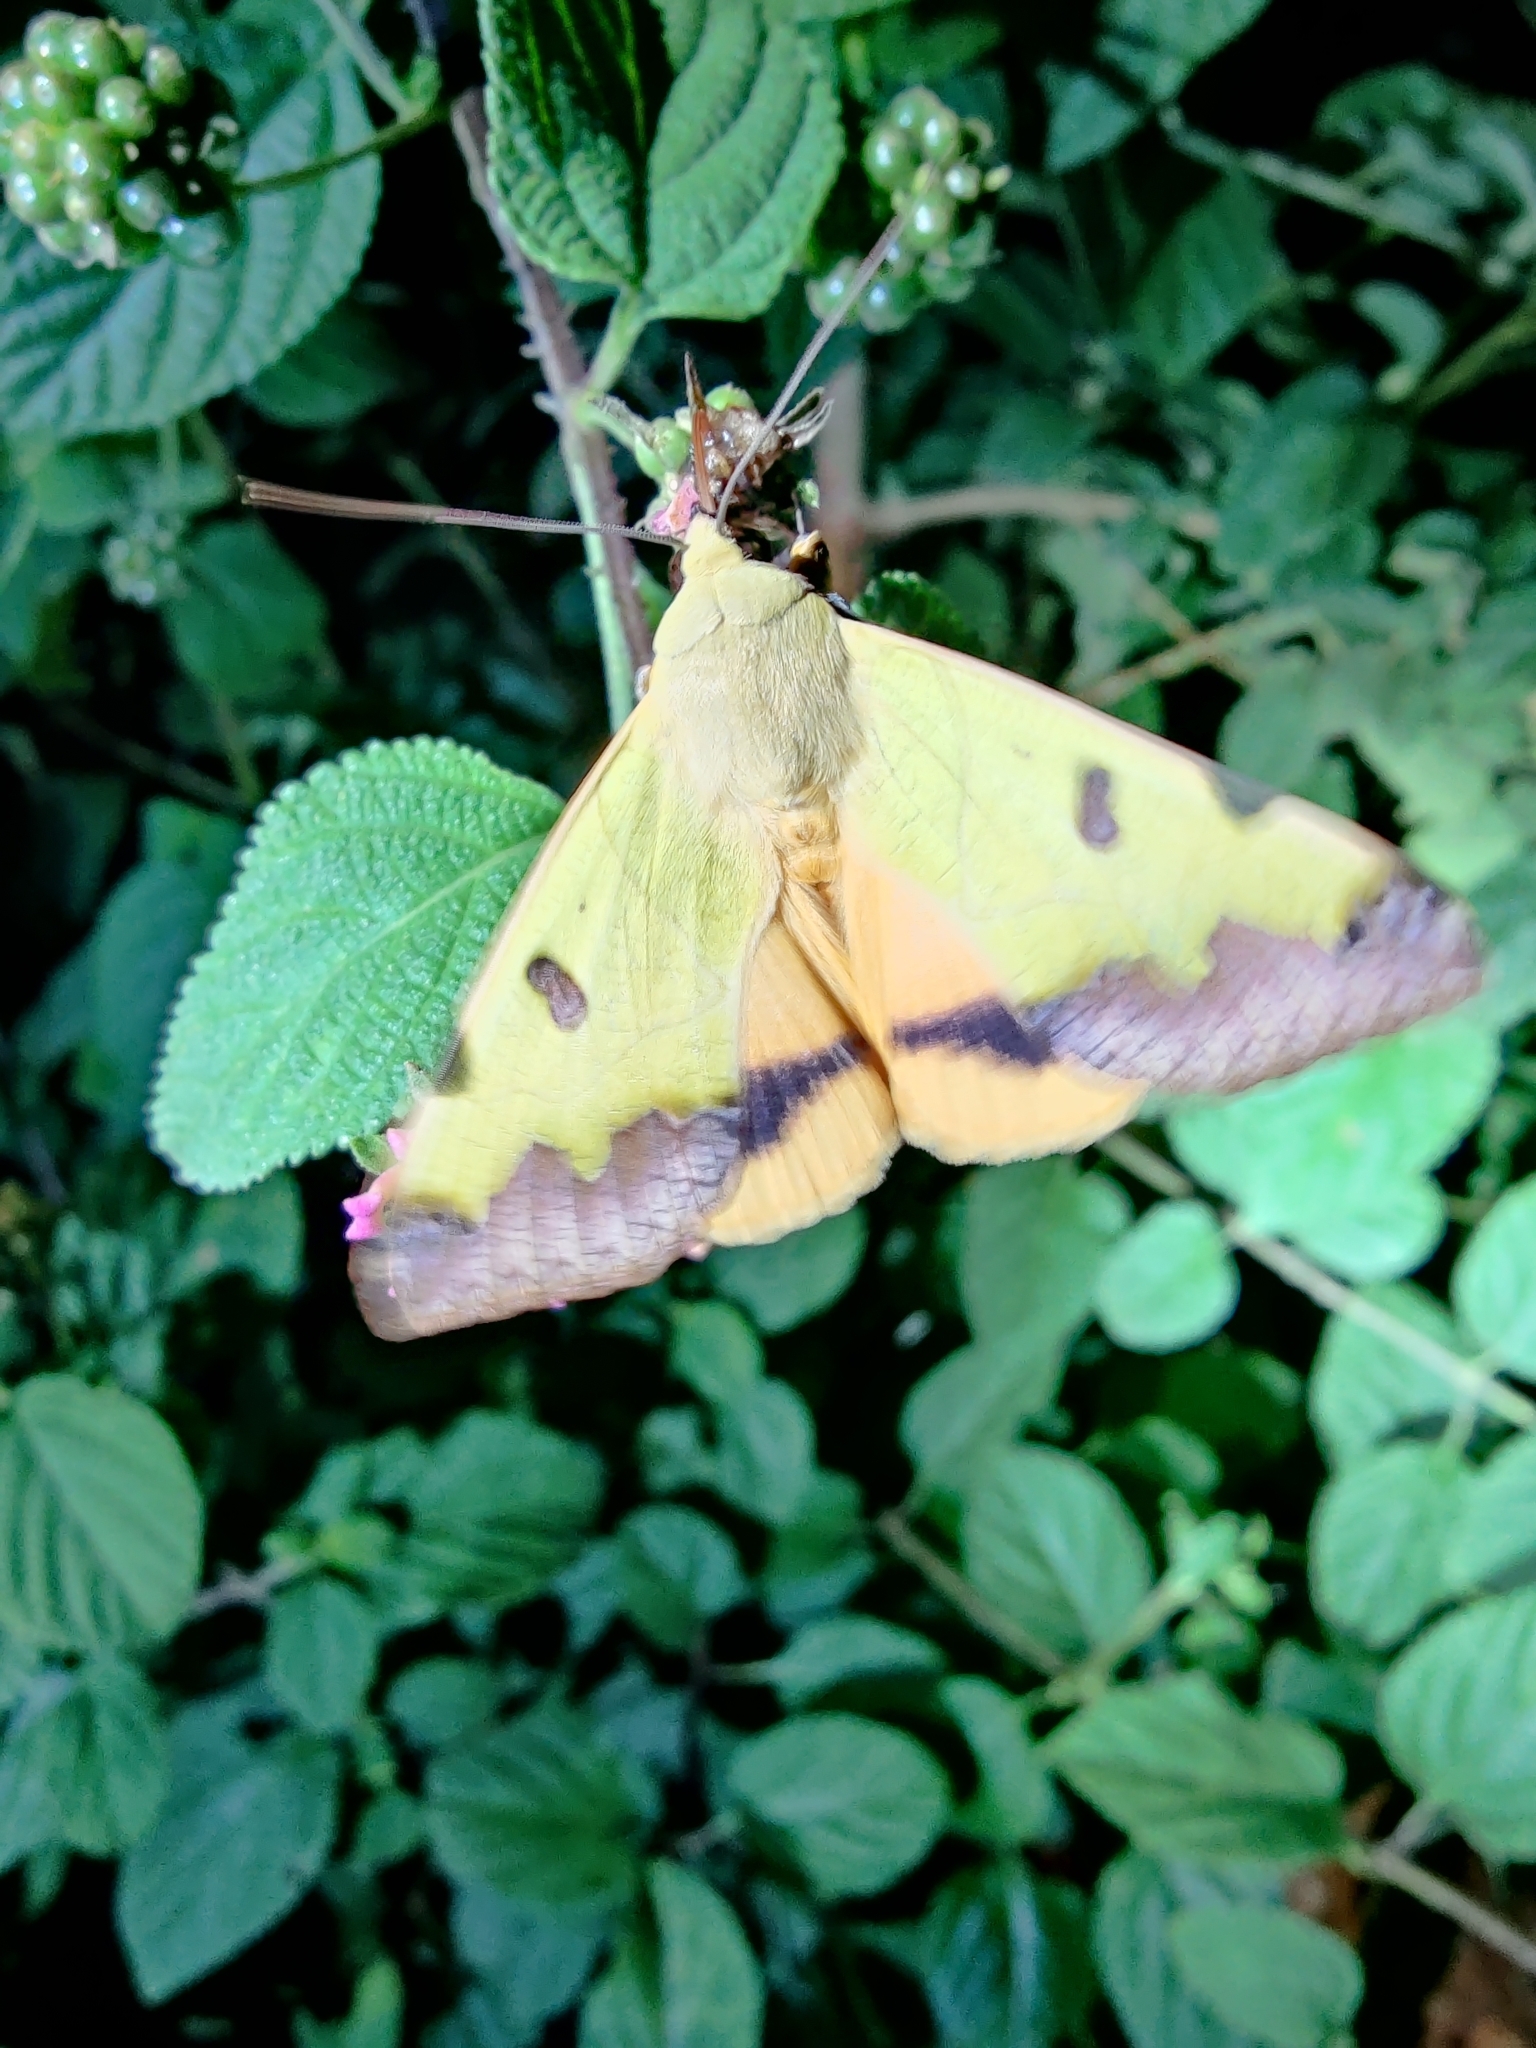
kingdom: Animalia
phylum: Arthropoda
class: Insecta
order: Lepidoptera
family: Erebidae
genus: Ophiusa
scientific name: Ophiusa tirhaca
